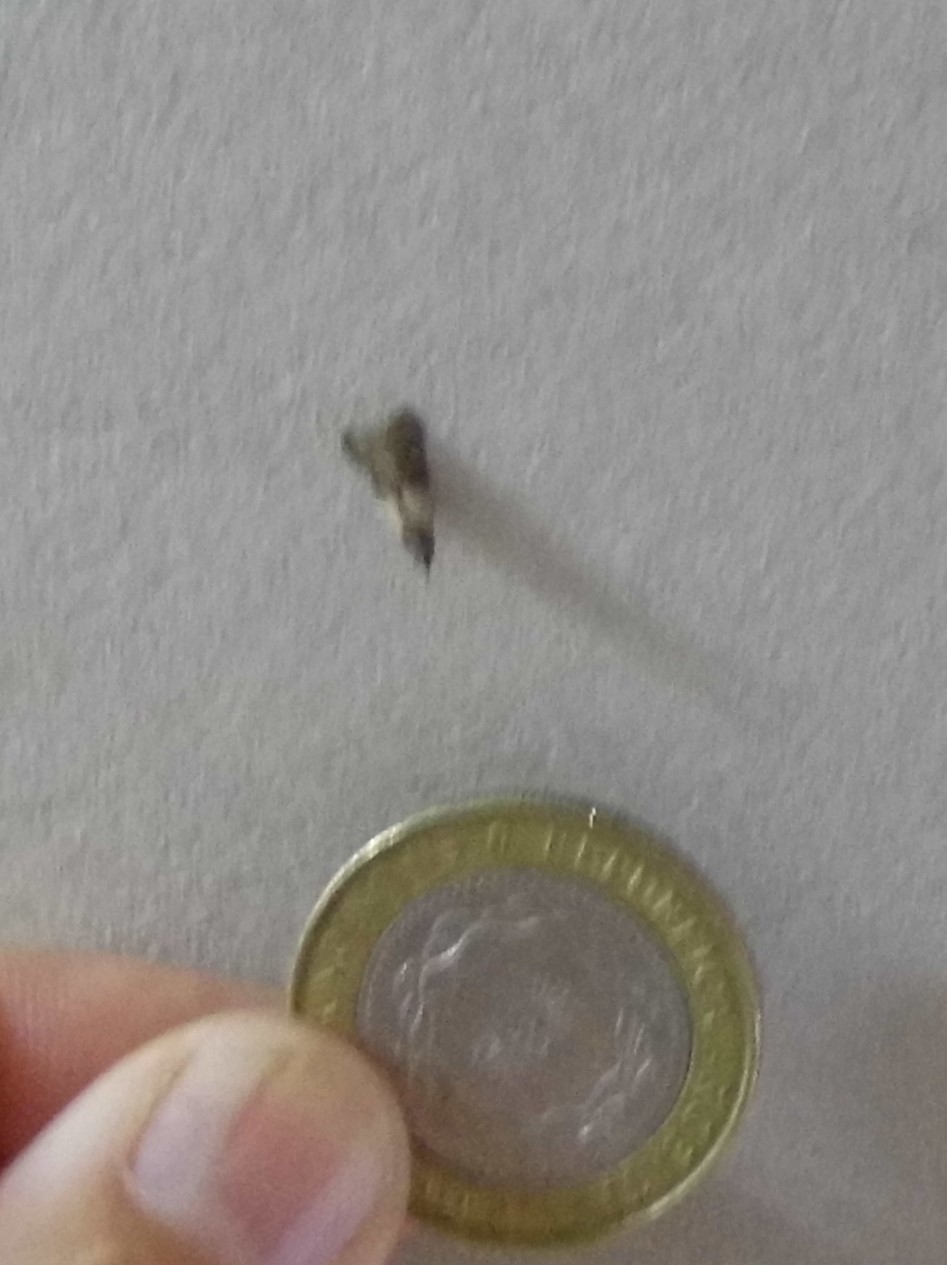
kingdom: Animalia
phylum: Arthropoda
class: Insecta
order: Lepidoptera
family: Pyralidae
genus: Plodia
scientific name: Plodia interpunctella
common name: Indian meal moth
